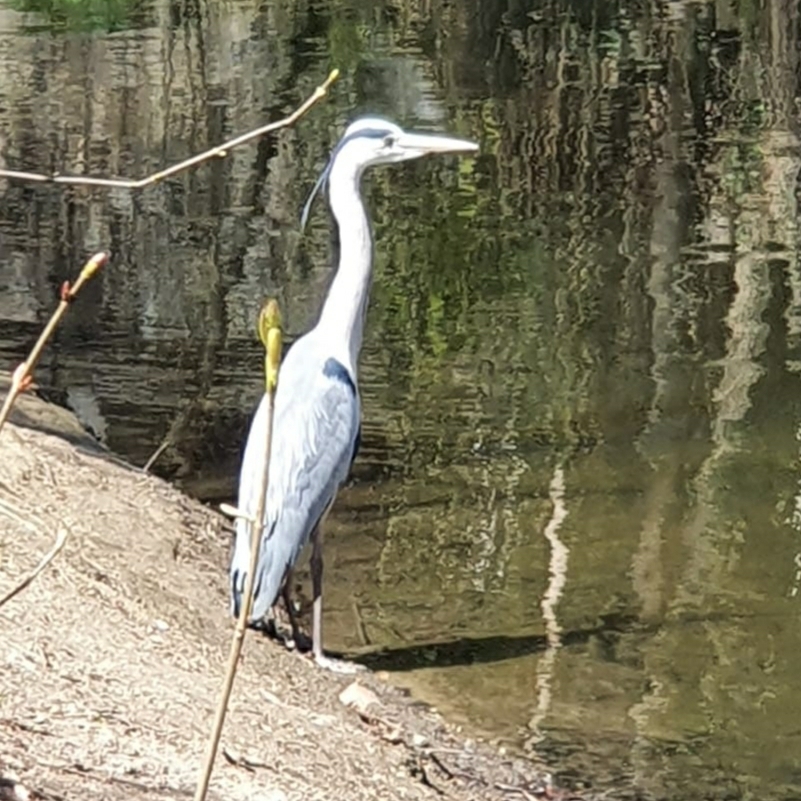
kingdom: Animalia
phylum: Chordata
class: Aves
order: Pelecaniformes
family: Ardeidae
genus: Ardea
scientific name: Ardea cinerea
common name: Grey heron
